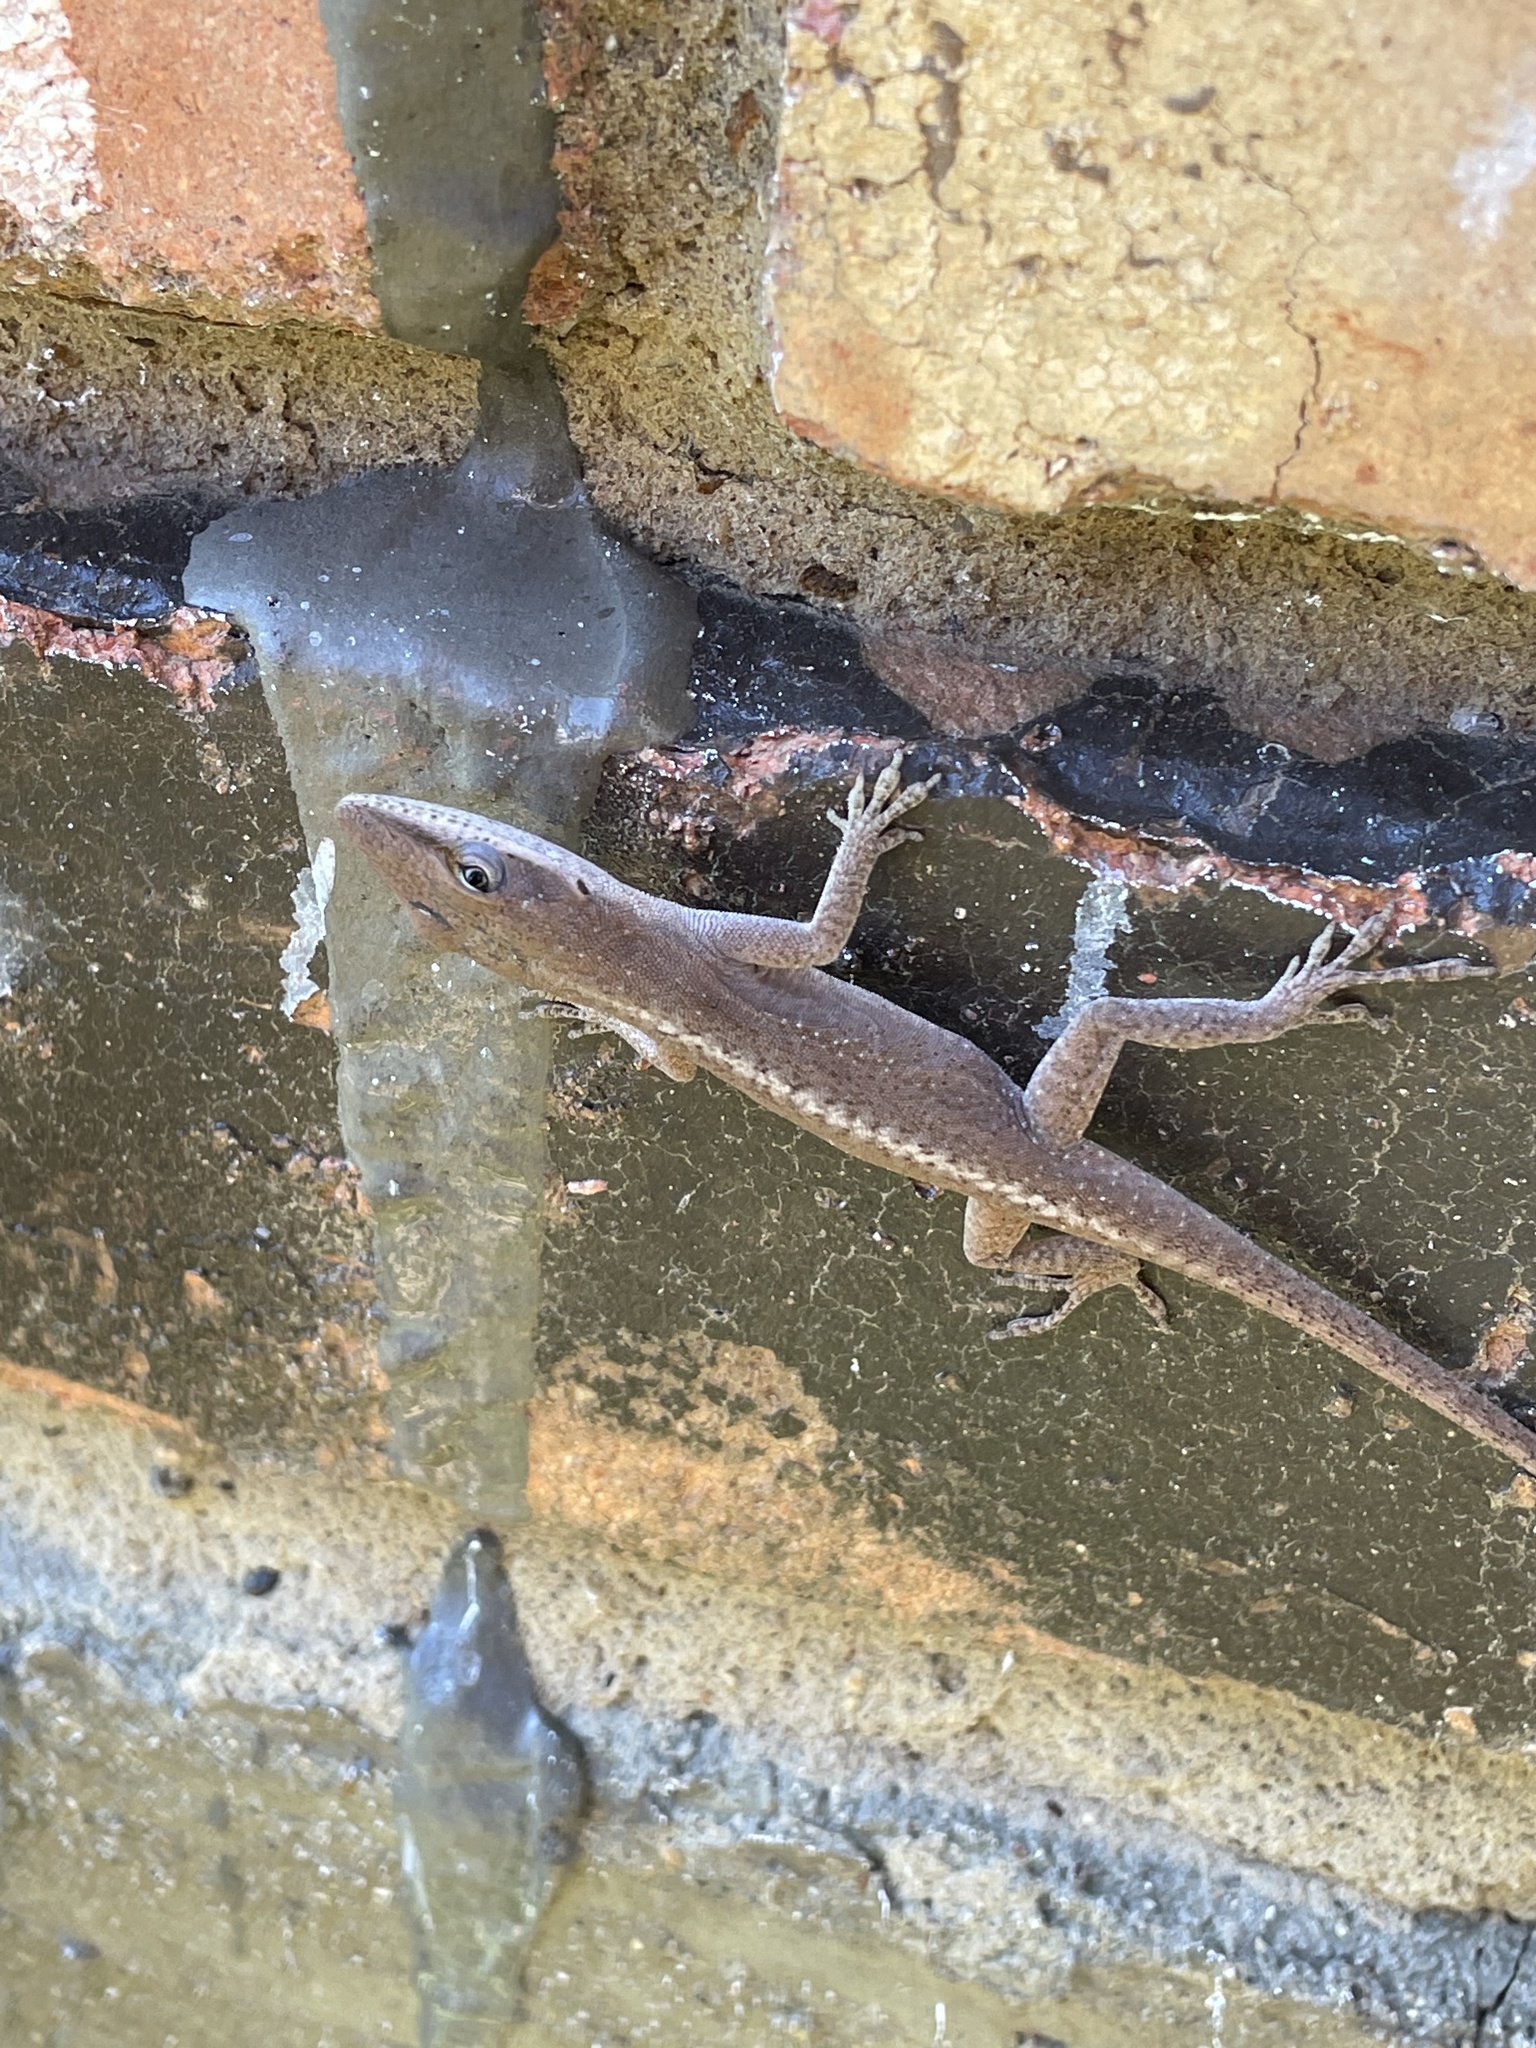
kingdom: Animalia
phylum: Chordata
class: Squamata
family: Dactyloidae
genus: Anolis
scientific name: Anolis carolinensis
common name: Green anole
